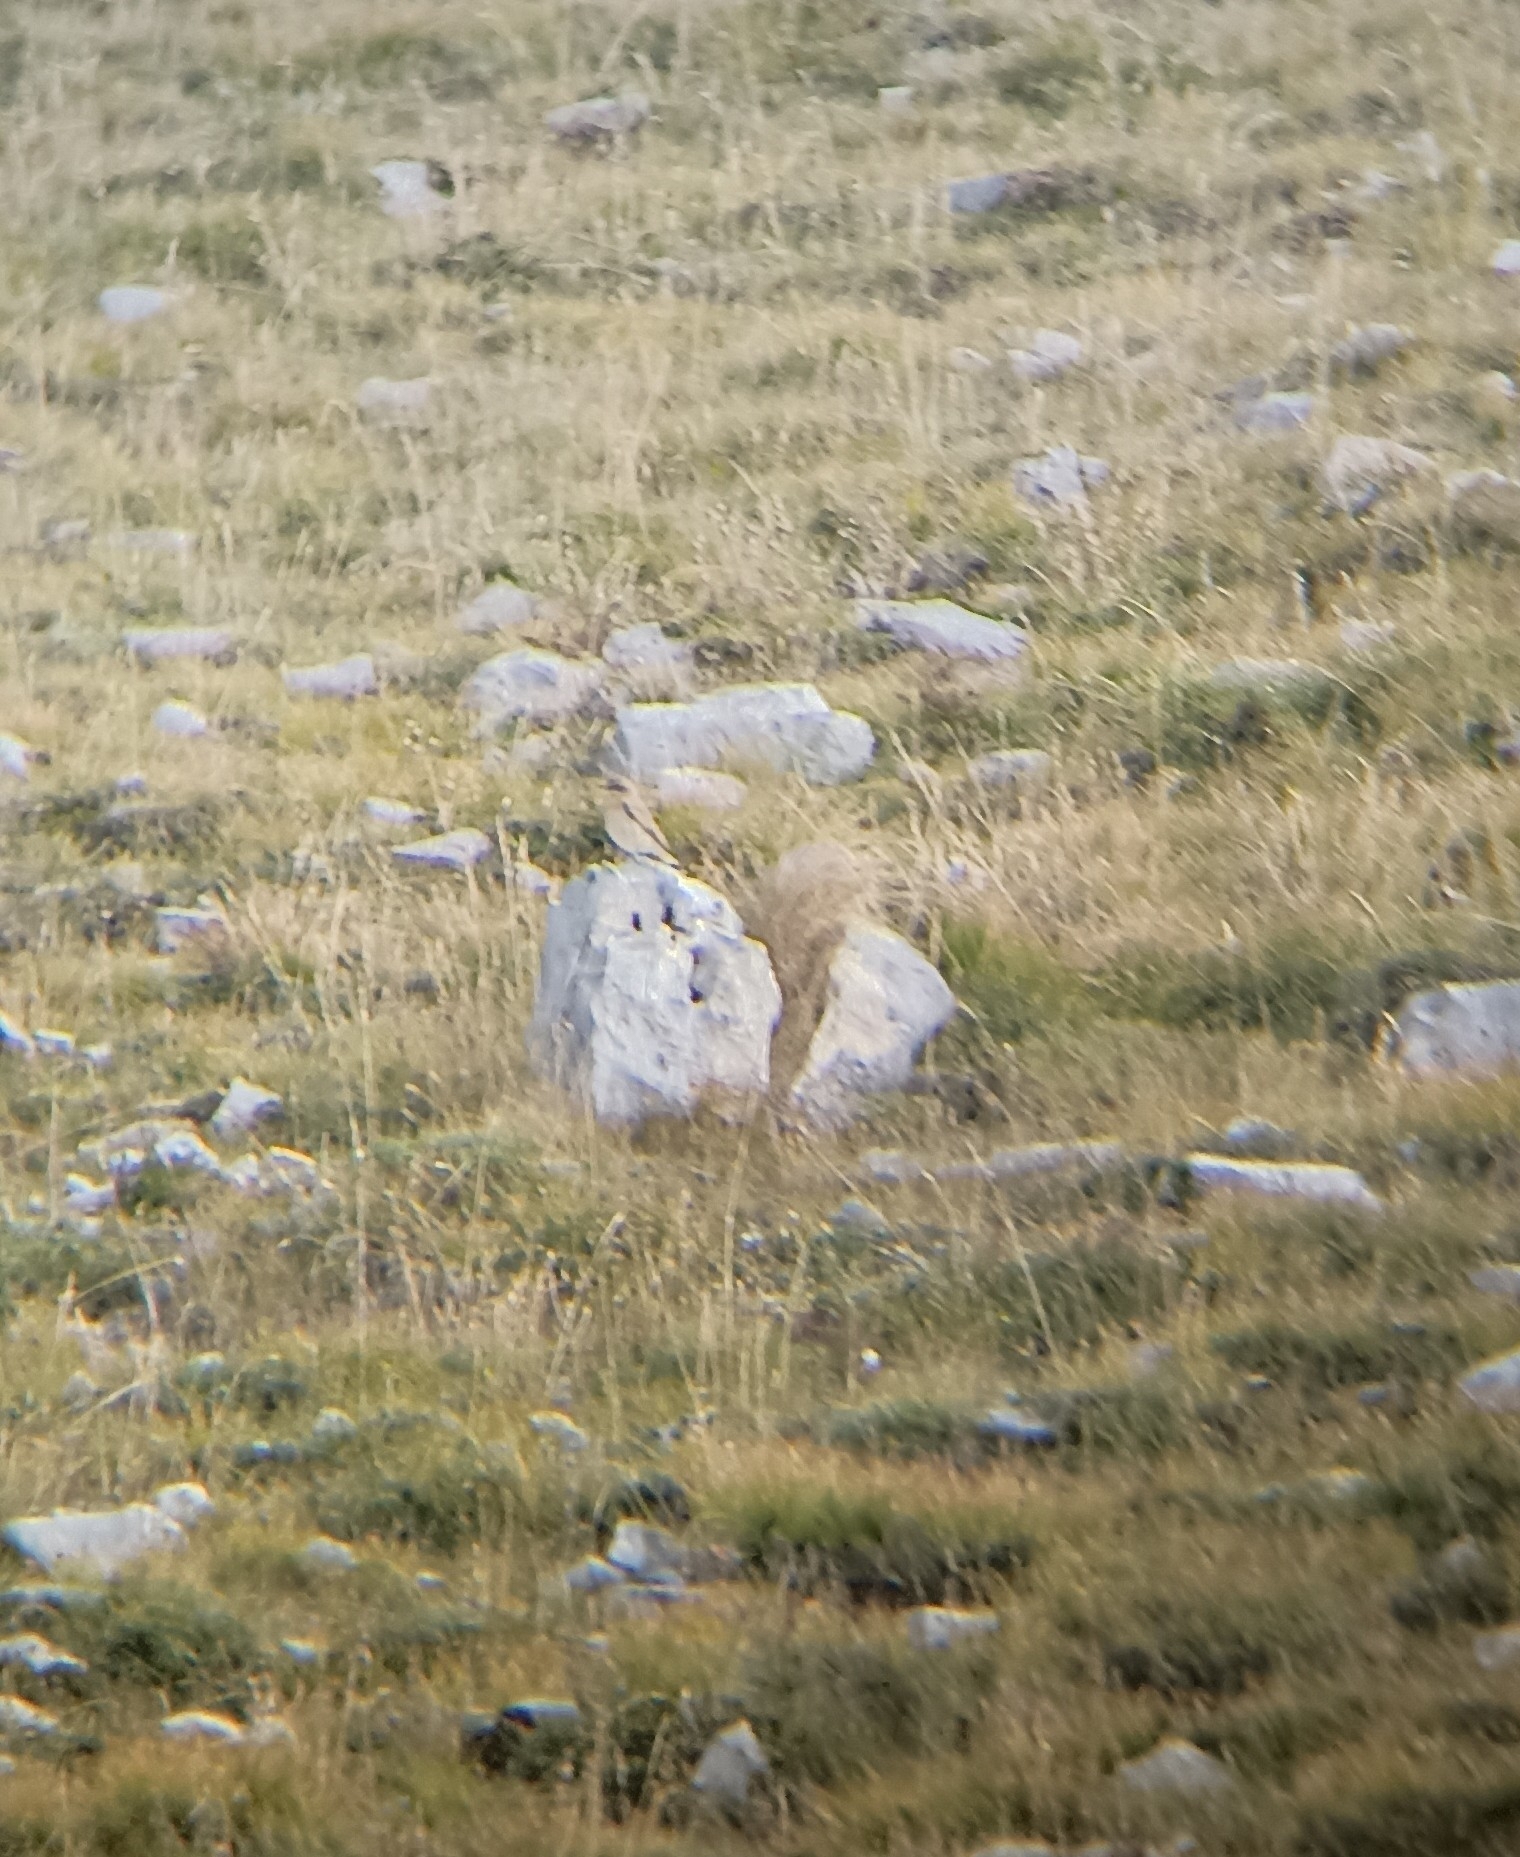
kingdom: Animalia
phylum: Chordata
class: Aves
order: Passeriformes
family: Muscicapidae
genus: Oenanthe
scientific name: Oenanthe oenanthe
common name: Northern wheatear
